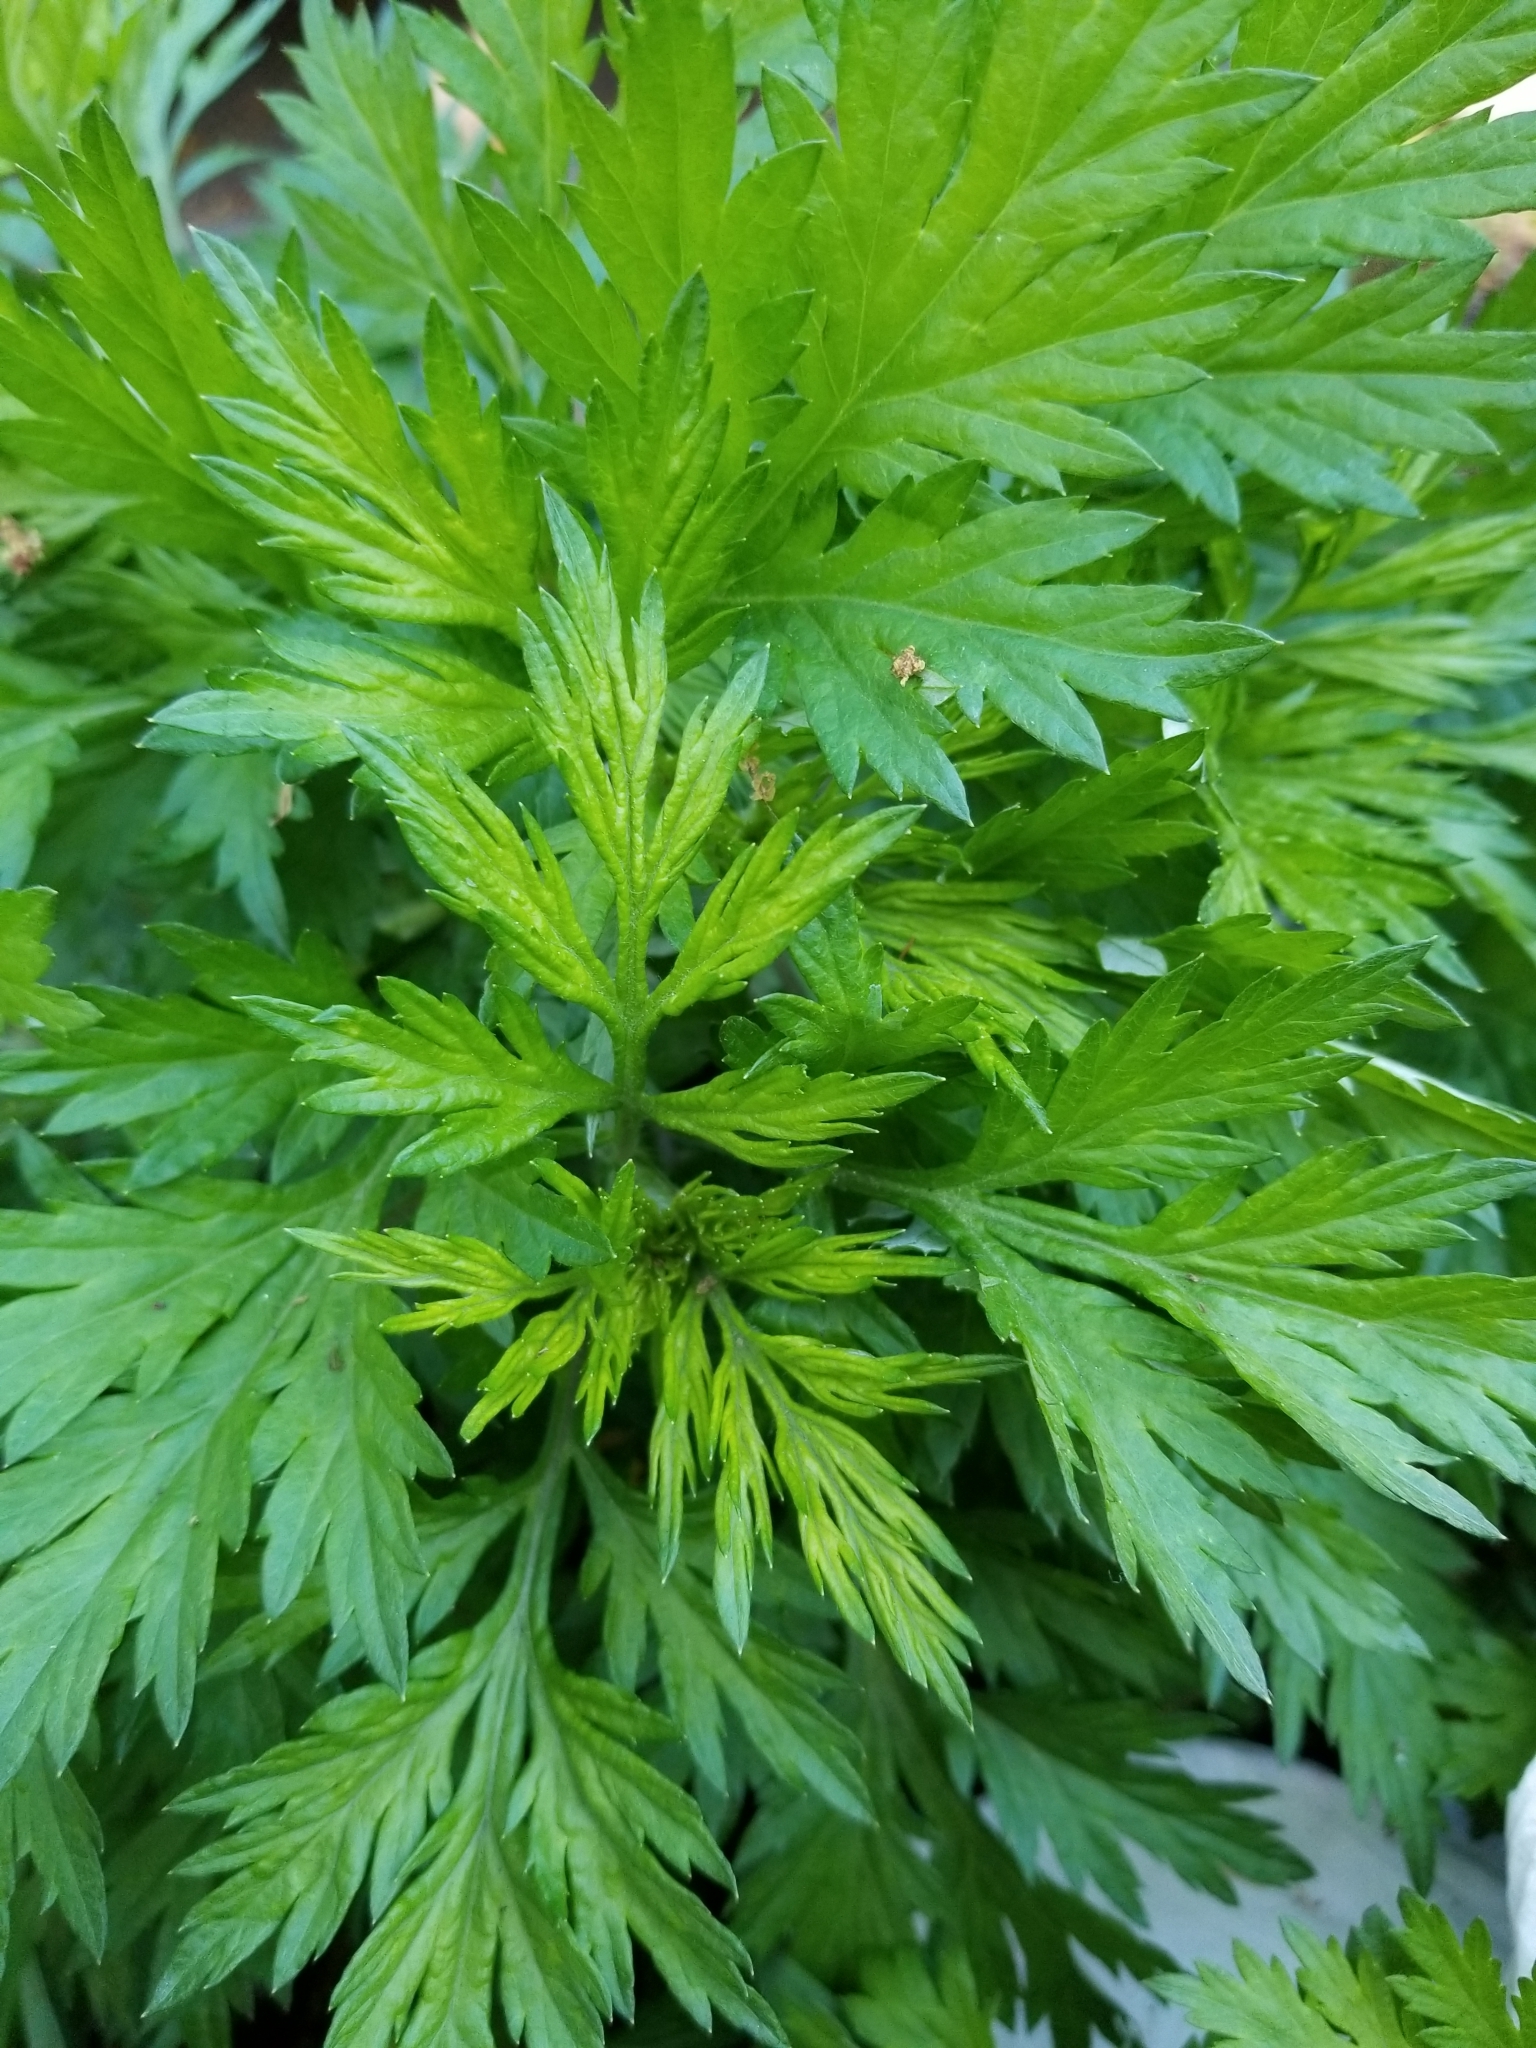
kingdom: Plantae
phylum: Tracheophyta
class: Magnoliopsida
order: Asterales
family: Asteraceae
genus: Artemisia
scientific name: Artemisia vulgaris
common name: Mugwort
